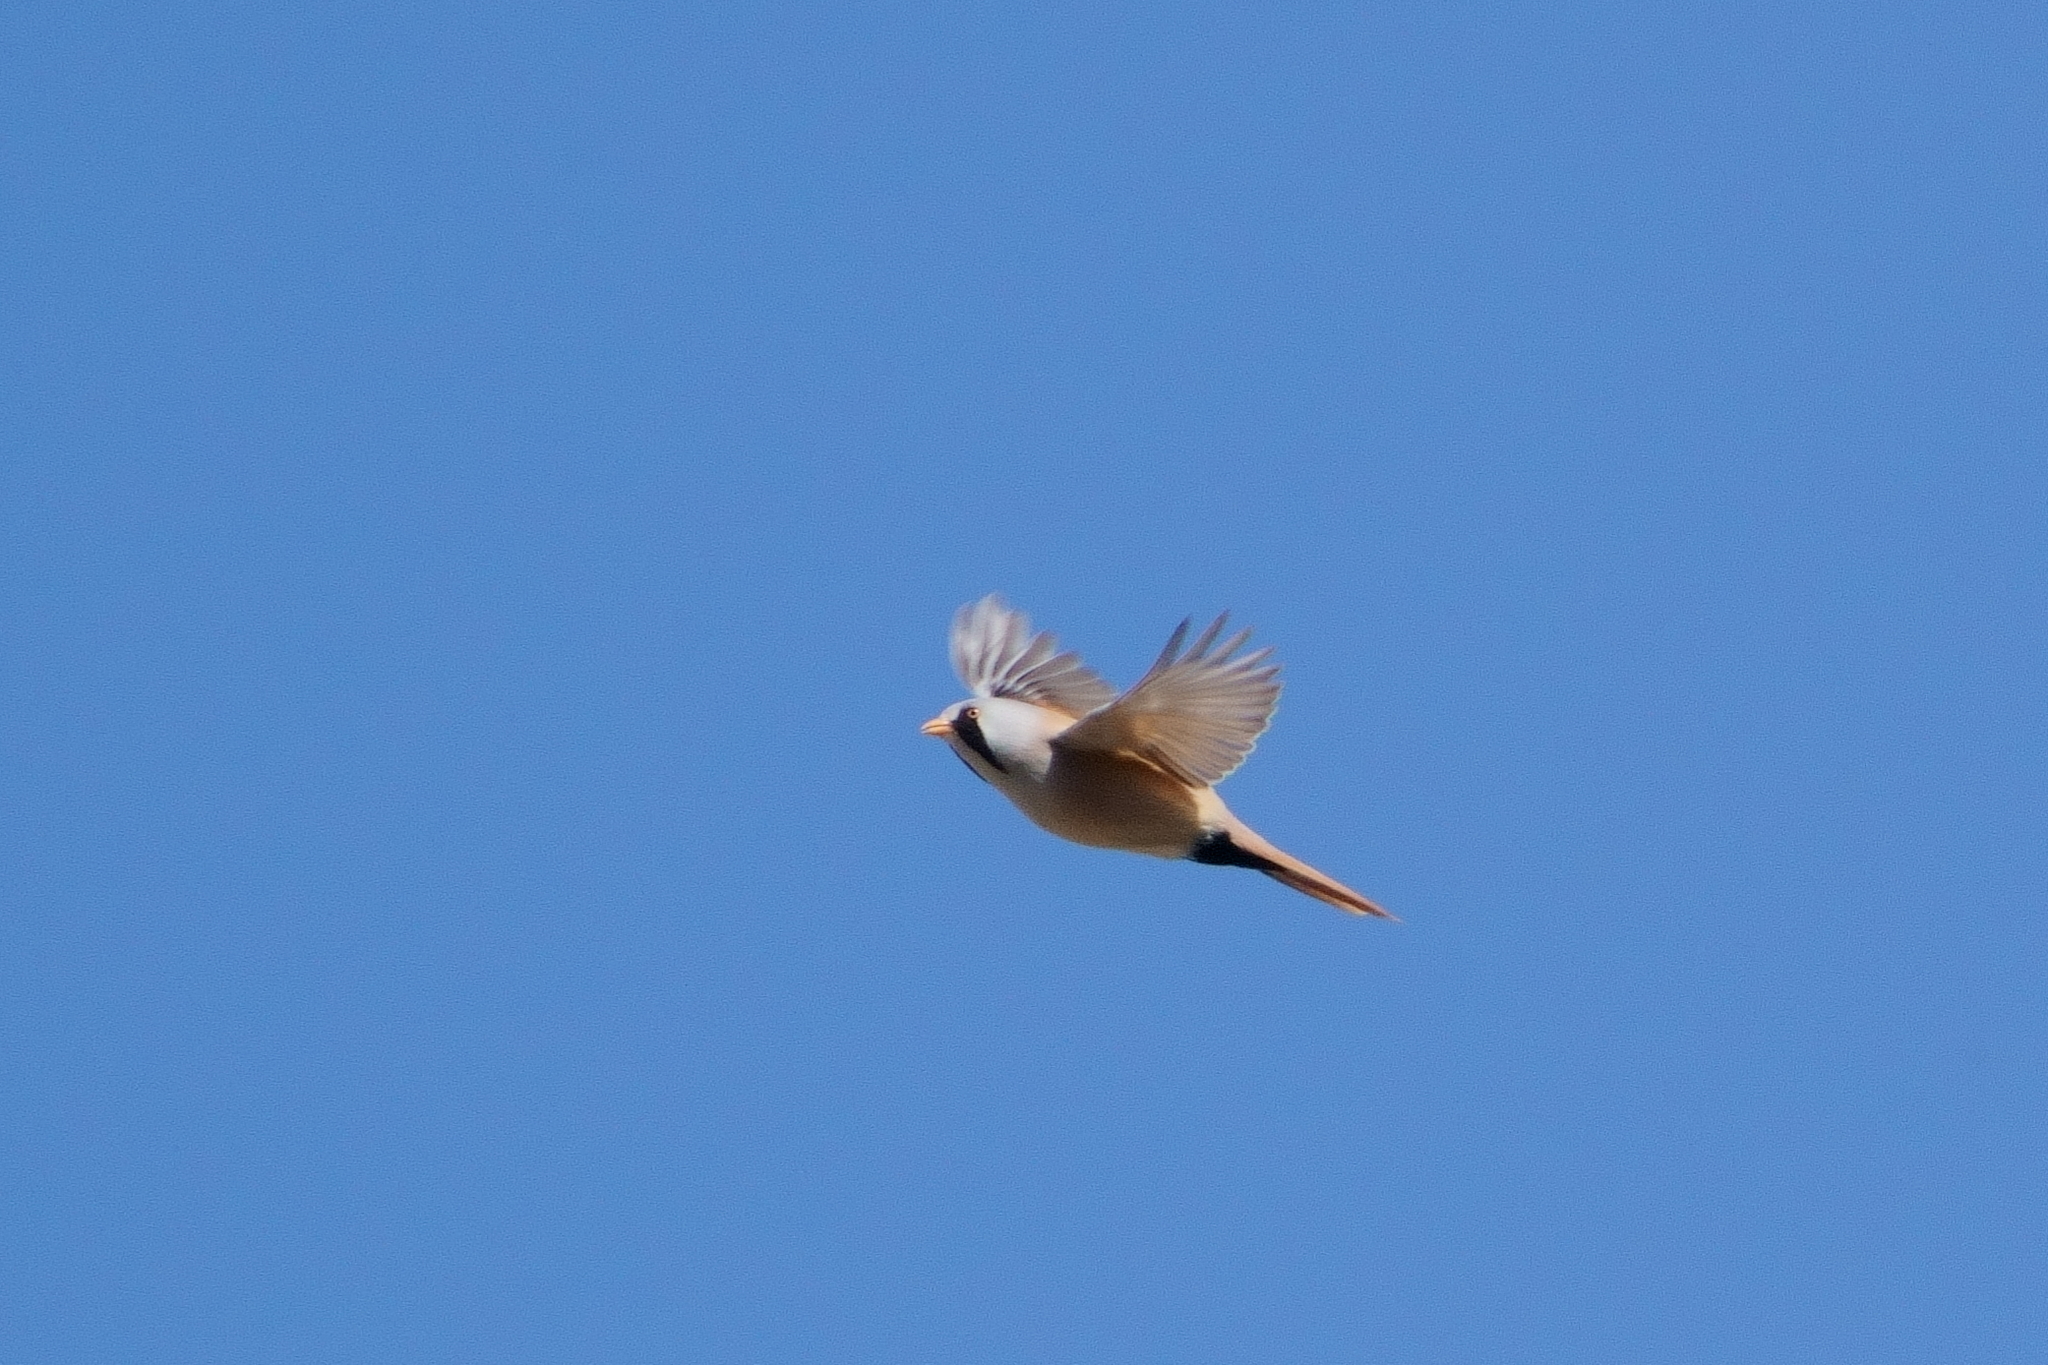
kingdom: Animalia
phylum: Chordata
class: Aves
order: Passeriformes
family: Panuridae
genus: Panurus
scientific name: Panurus biarmicus
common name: Bearded reedling
